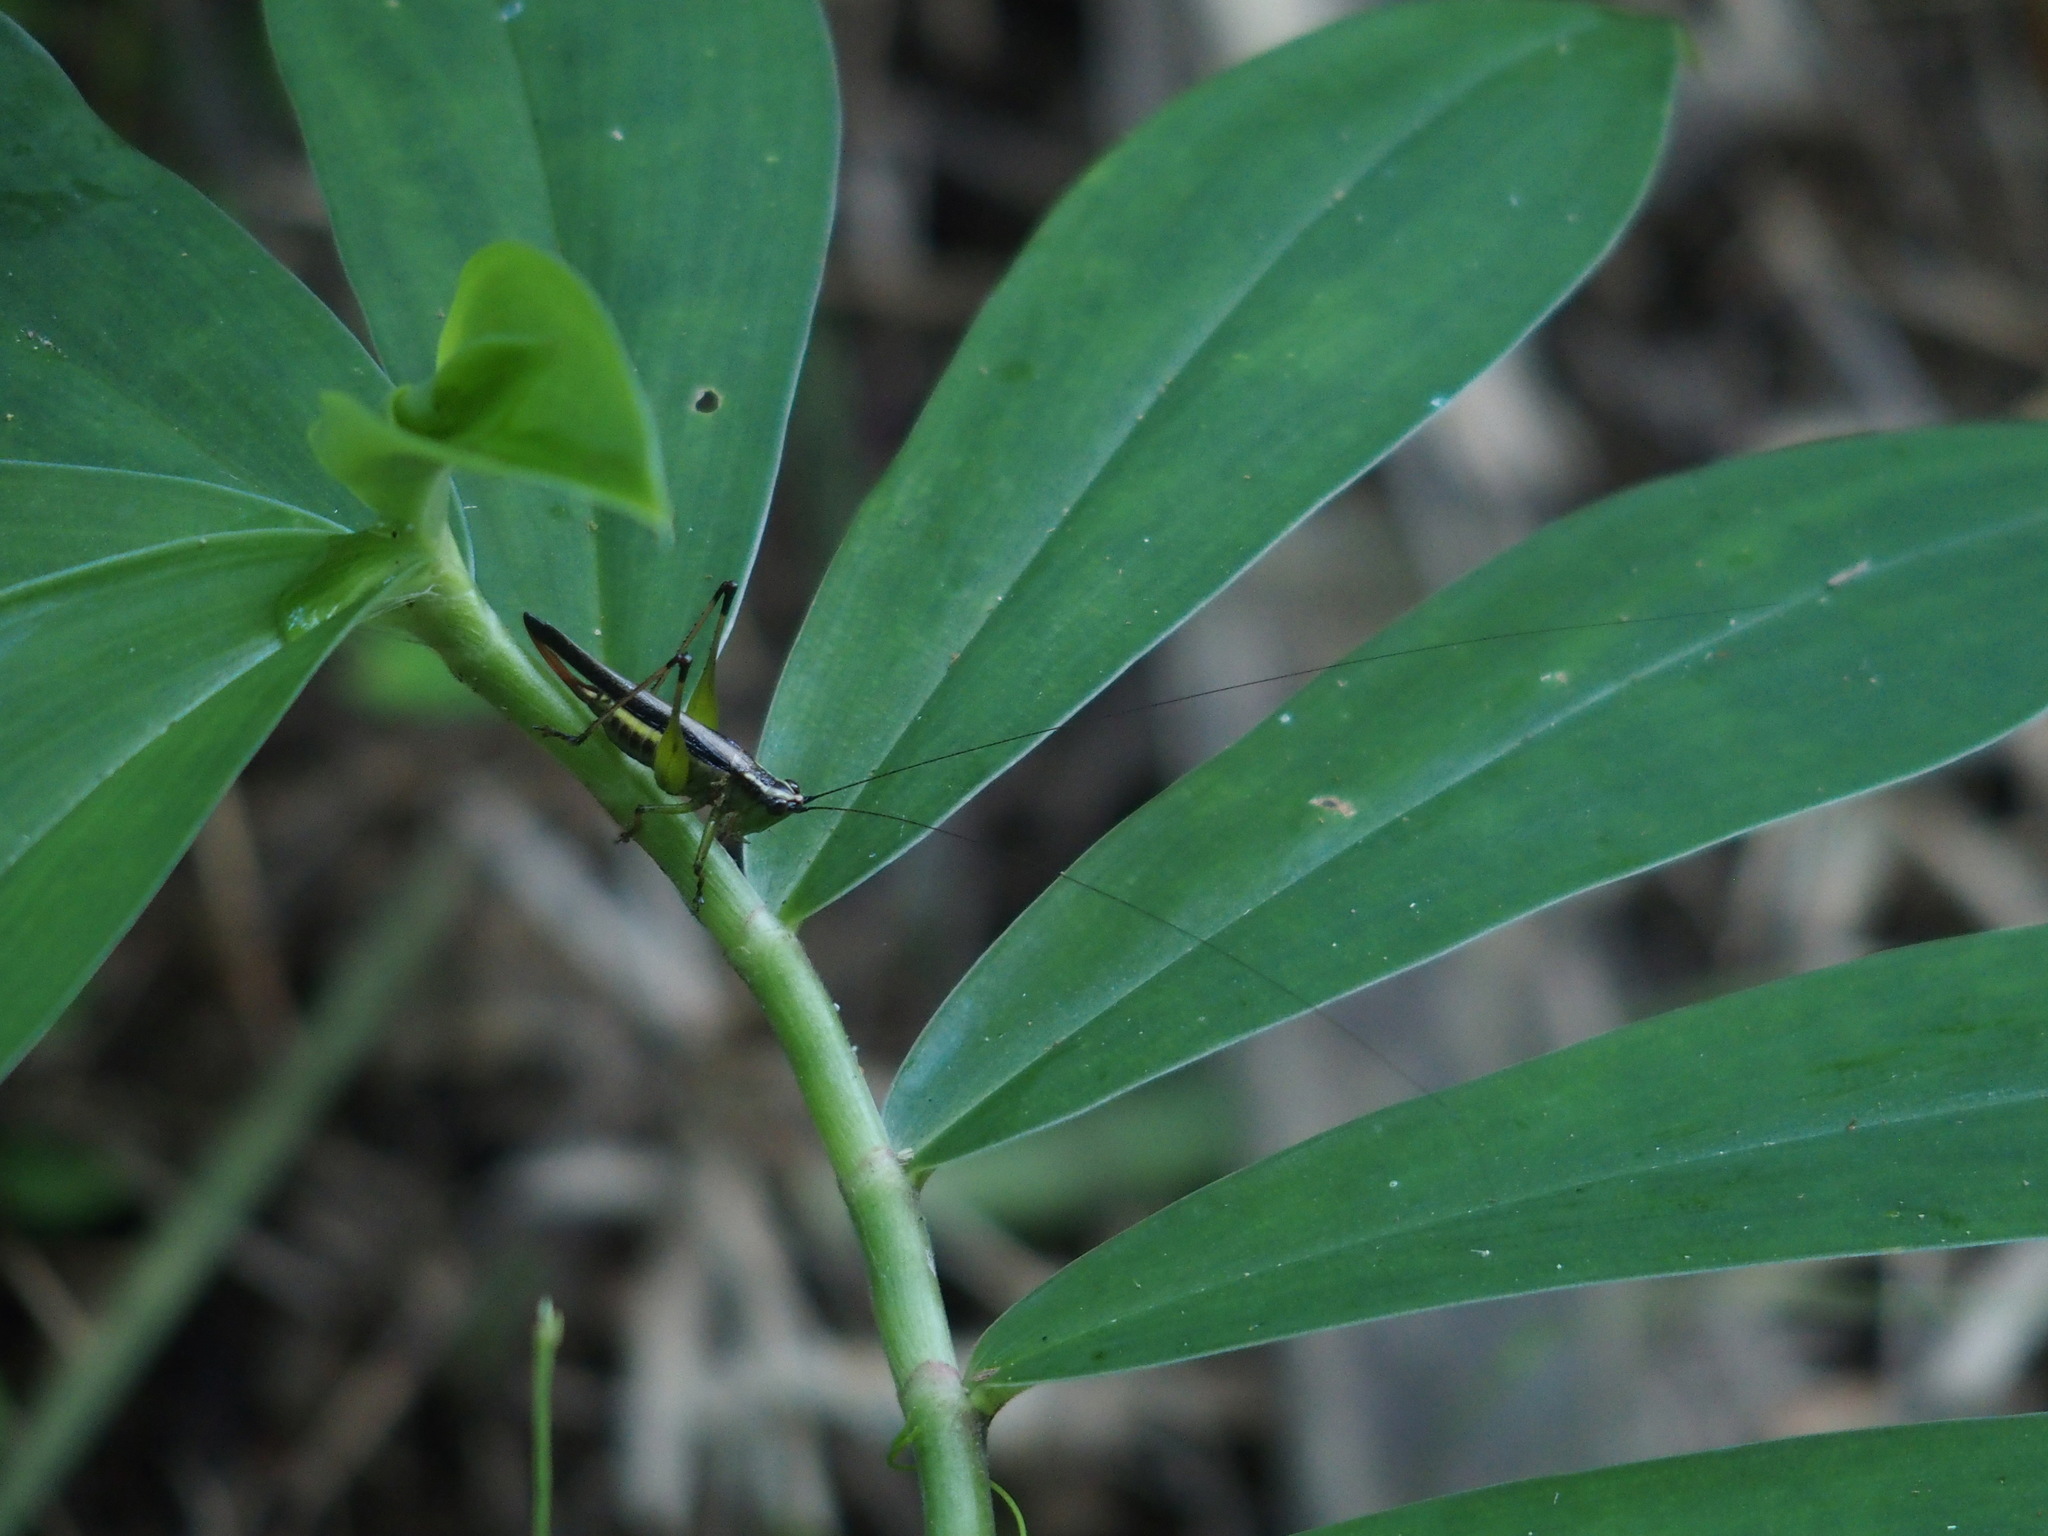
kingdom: Animalia
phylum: Arthropoda
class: Insecta
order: Orthoptera
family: Tettigoniidae
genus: Conocephalus
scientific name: Conocephalus melaenus
